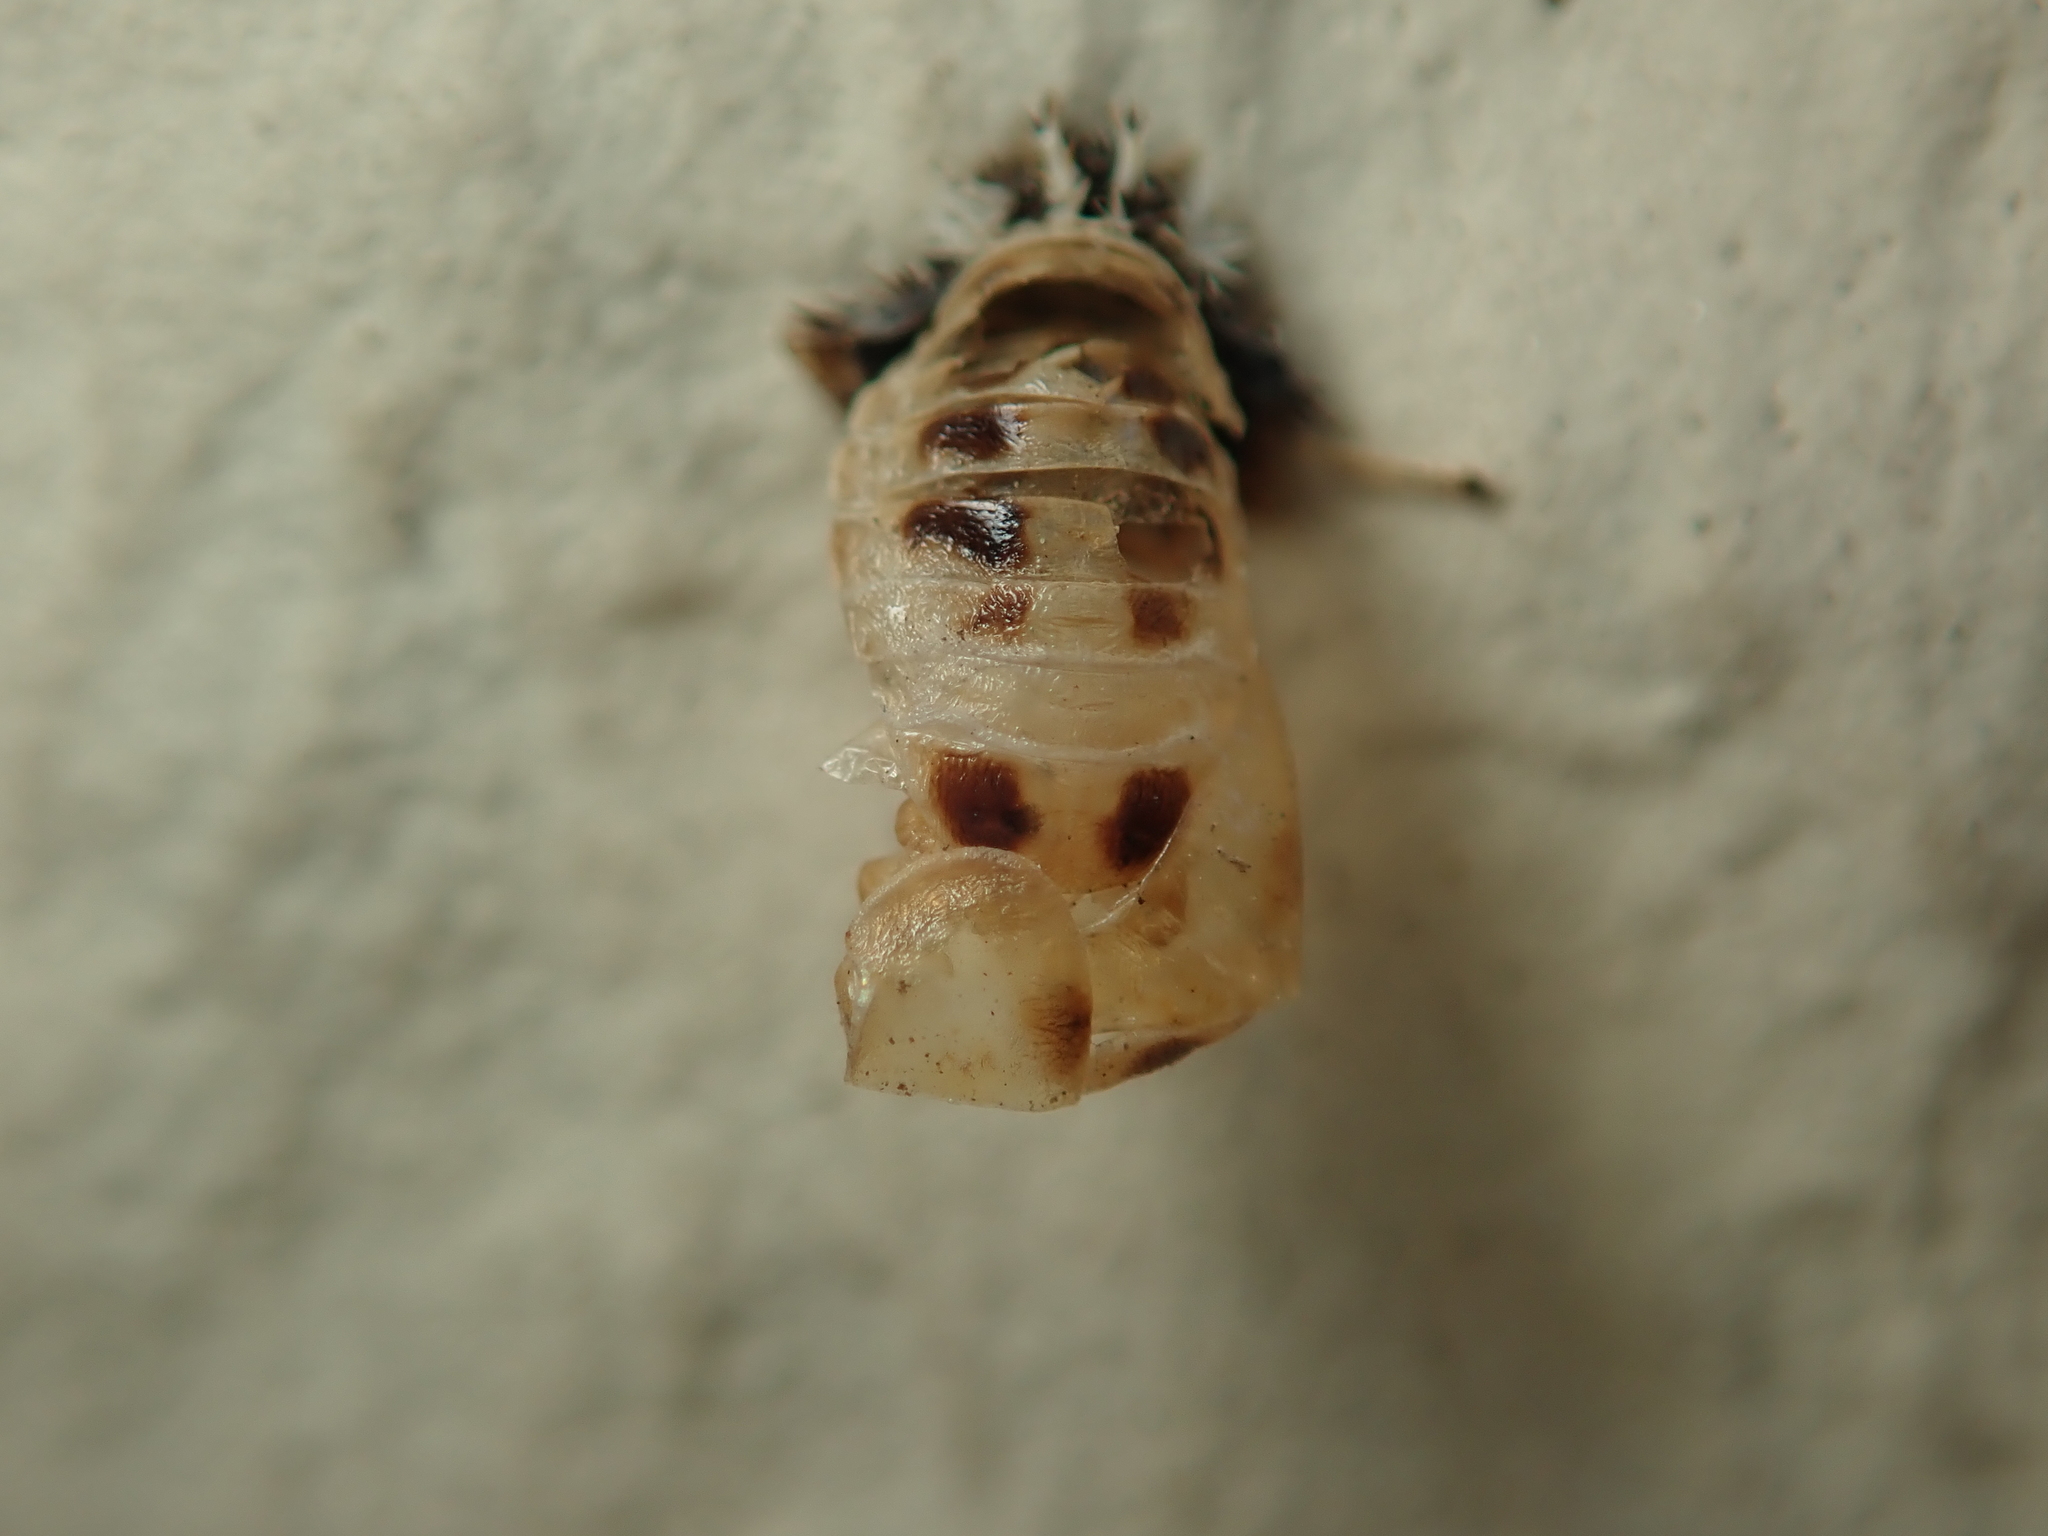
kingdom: Animalia
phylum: Arthropoda
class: Insecta
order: Coleoptera
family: Coccinellidae
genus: Harmonia
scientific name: Harmonia axyridis
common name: Harlequin ladybird
